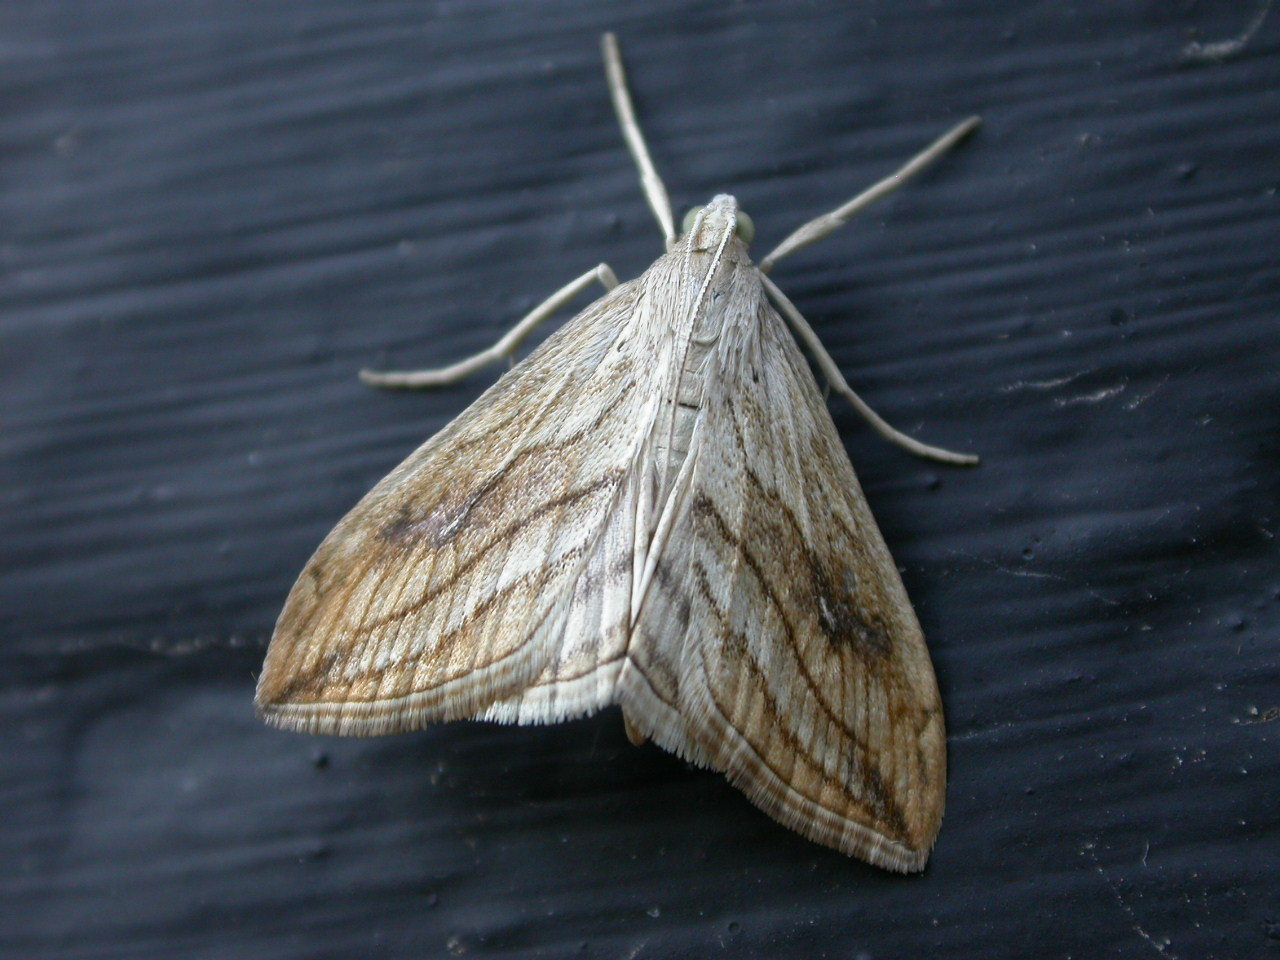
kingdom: Animalia
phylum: Arthropoda
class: Insecta
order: Lepidoptera
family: Crambidae
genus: Evergestis
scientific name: Evergestis forficalis
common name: Garden pebble
